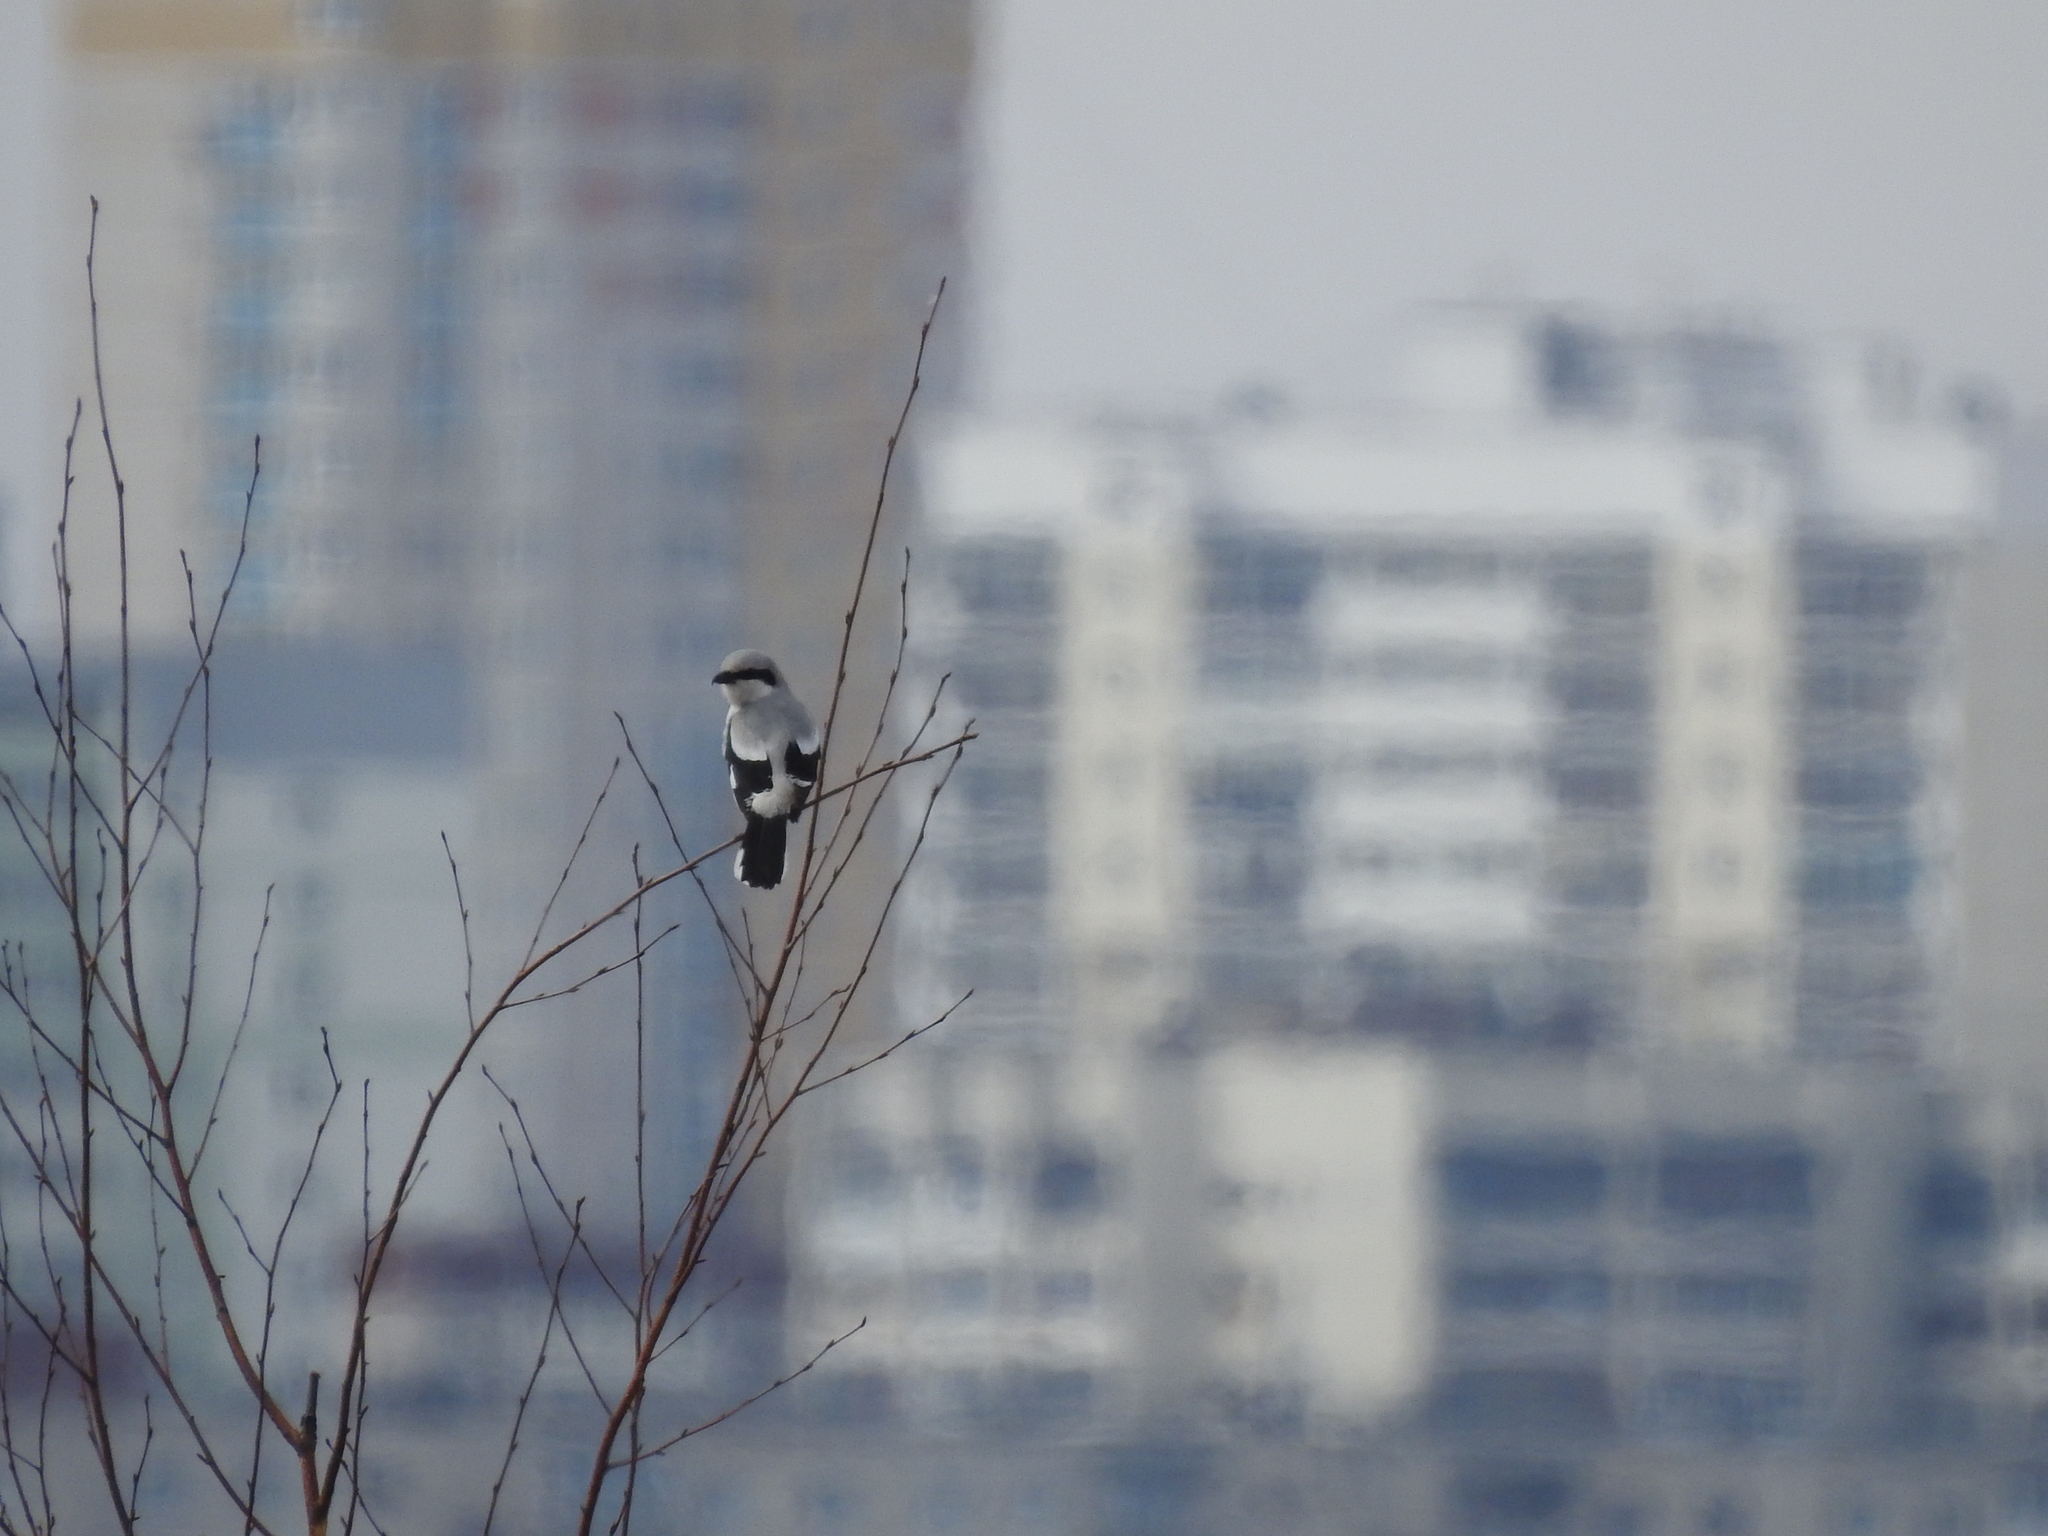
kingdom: Animalia
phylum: Chordata
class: Aves
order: Passeriformes
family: Laniidae
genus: Lanius
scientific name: Lanius excubitor
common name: Great grey shrike
